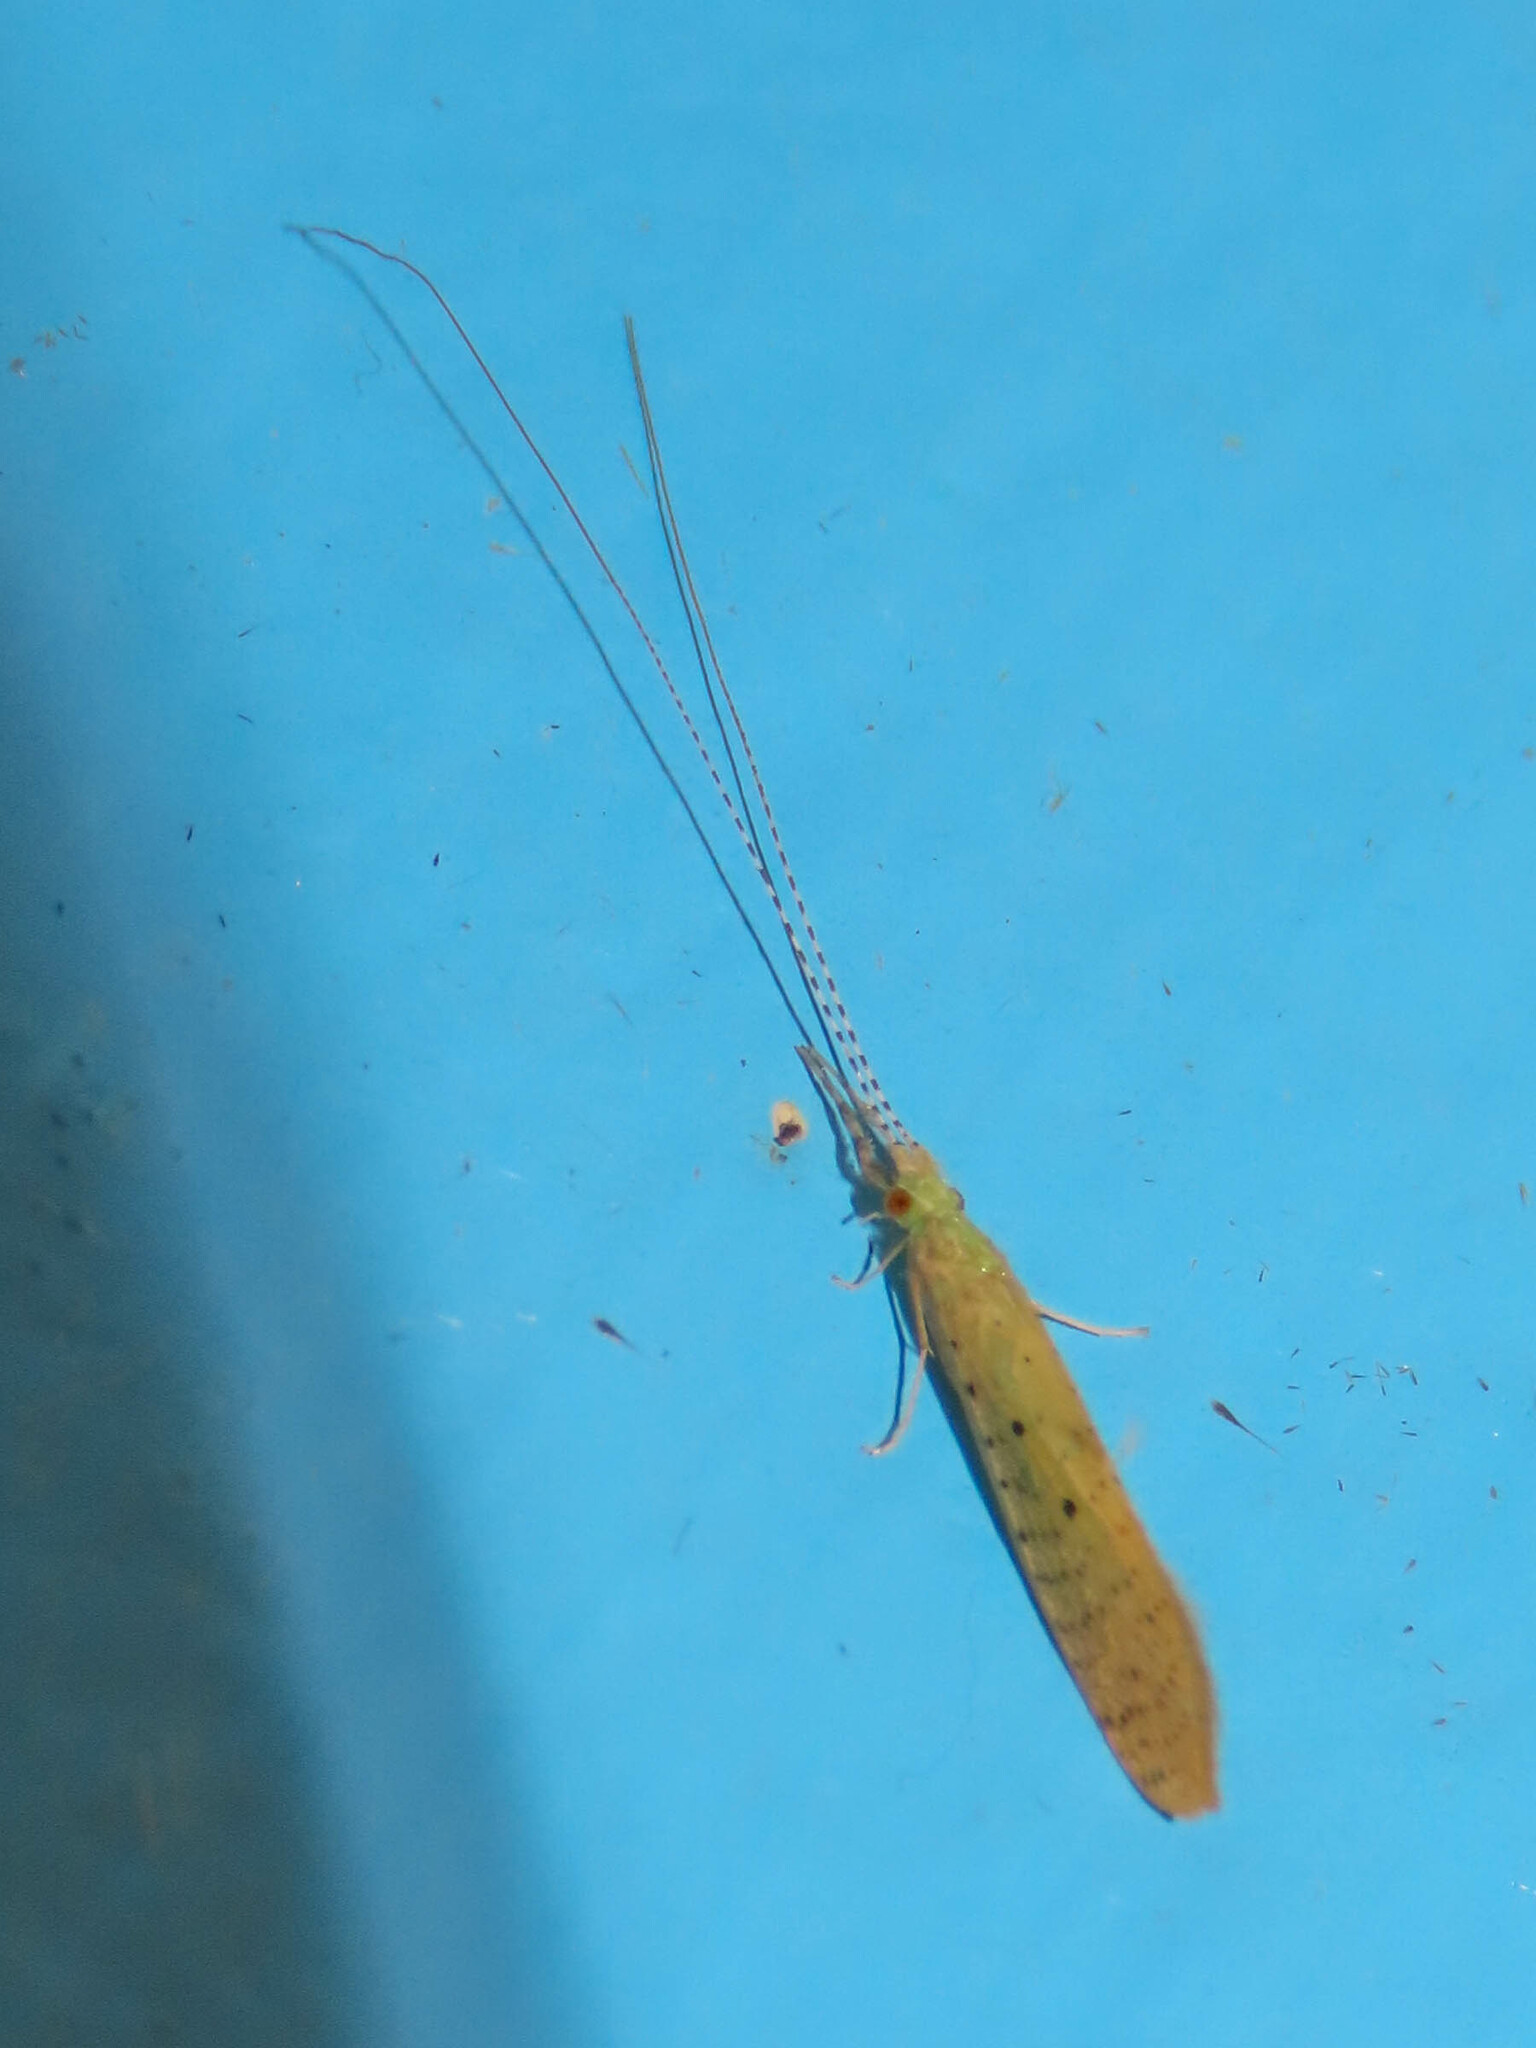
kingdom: Animalia
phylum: Arthropoda
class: Insecta
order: Trichoptera
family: Leptoceridae
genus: Nectopsyche
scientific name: Nectopsyche pavida
